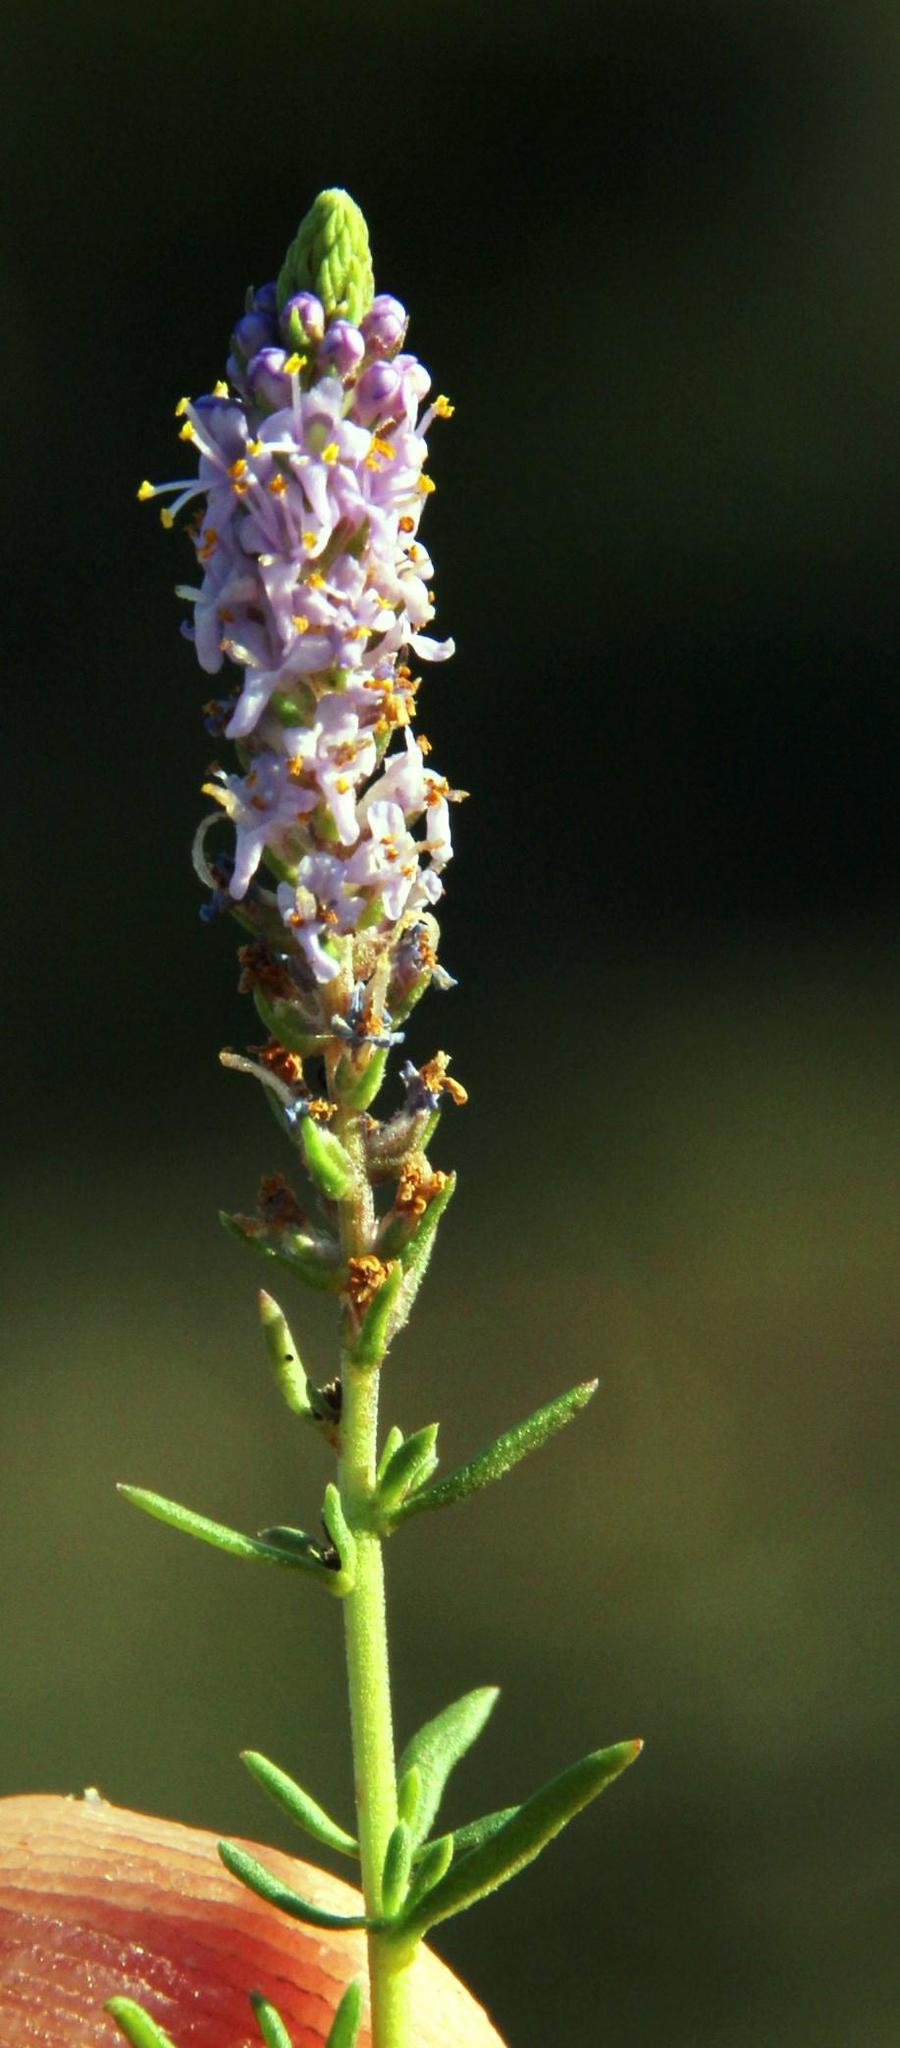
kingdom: Plantae
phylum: Tracheophyta
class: Magnoliopsida
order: Lamiales
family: Scrophulariaceae
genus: Selago
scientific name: Selago geniculata
